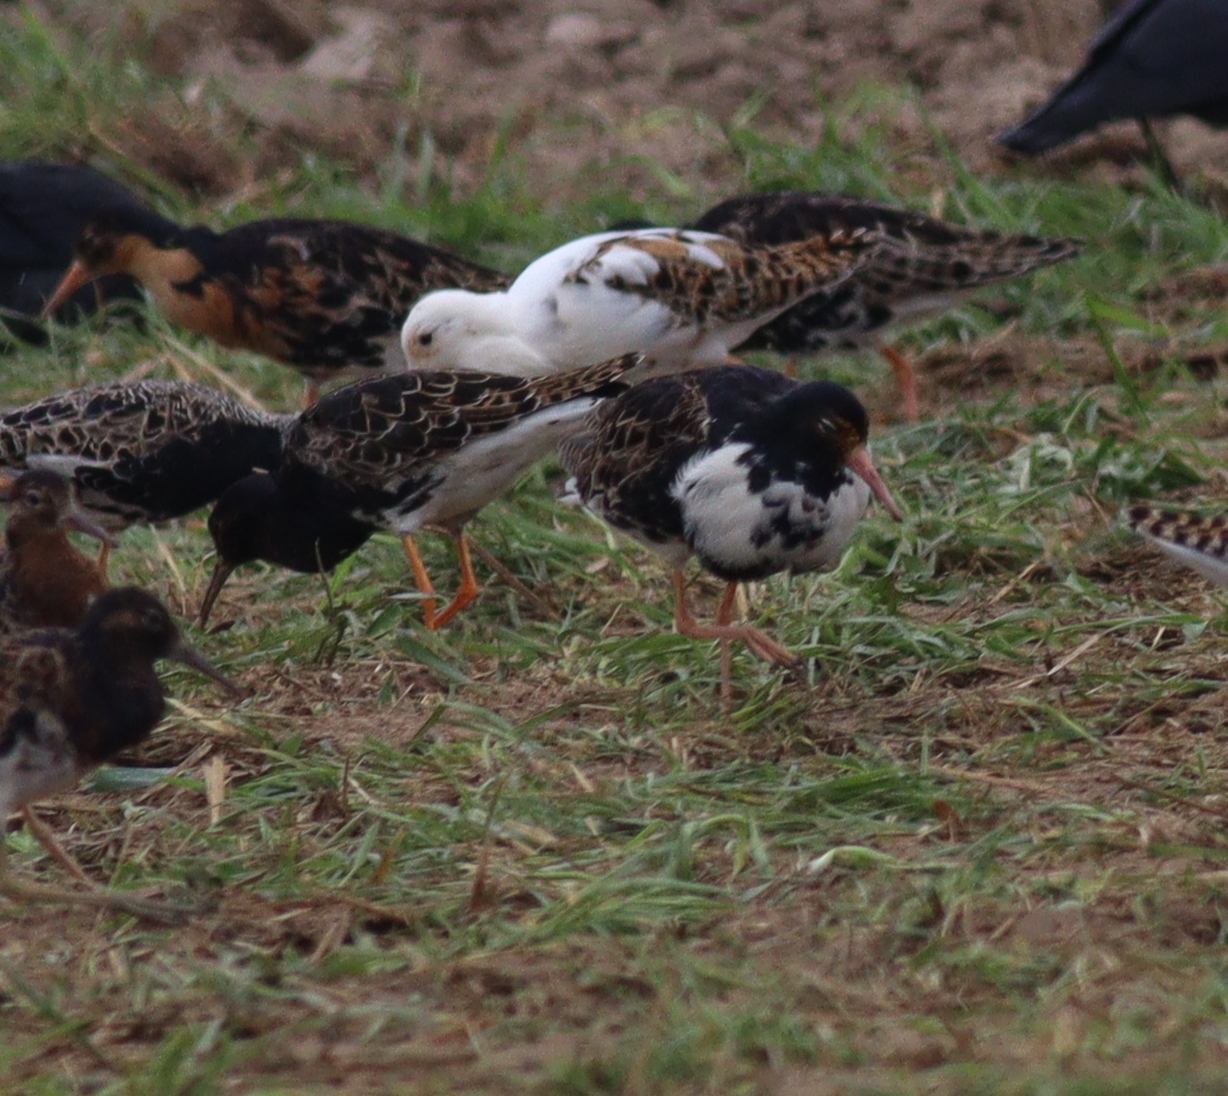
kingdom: Animalia
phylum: Chordata
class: Aves
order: Charadriiformes
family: Scolopacidae
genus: Calidris
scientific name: Calidris pugnax
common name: Ruff
